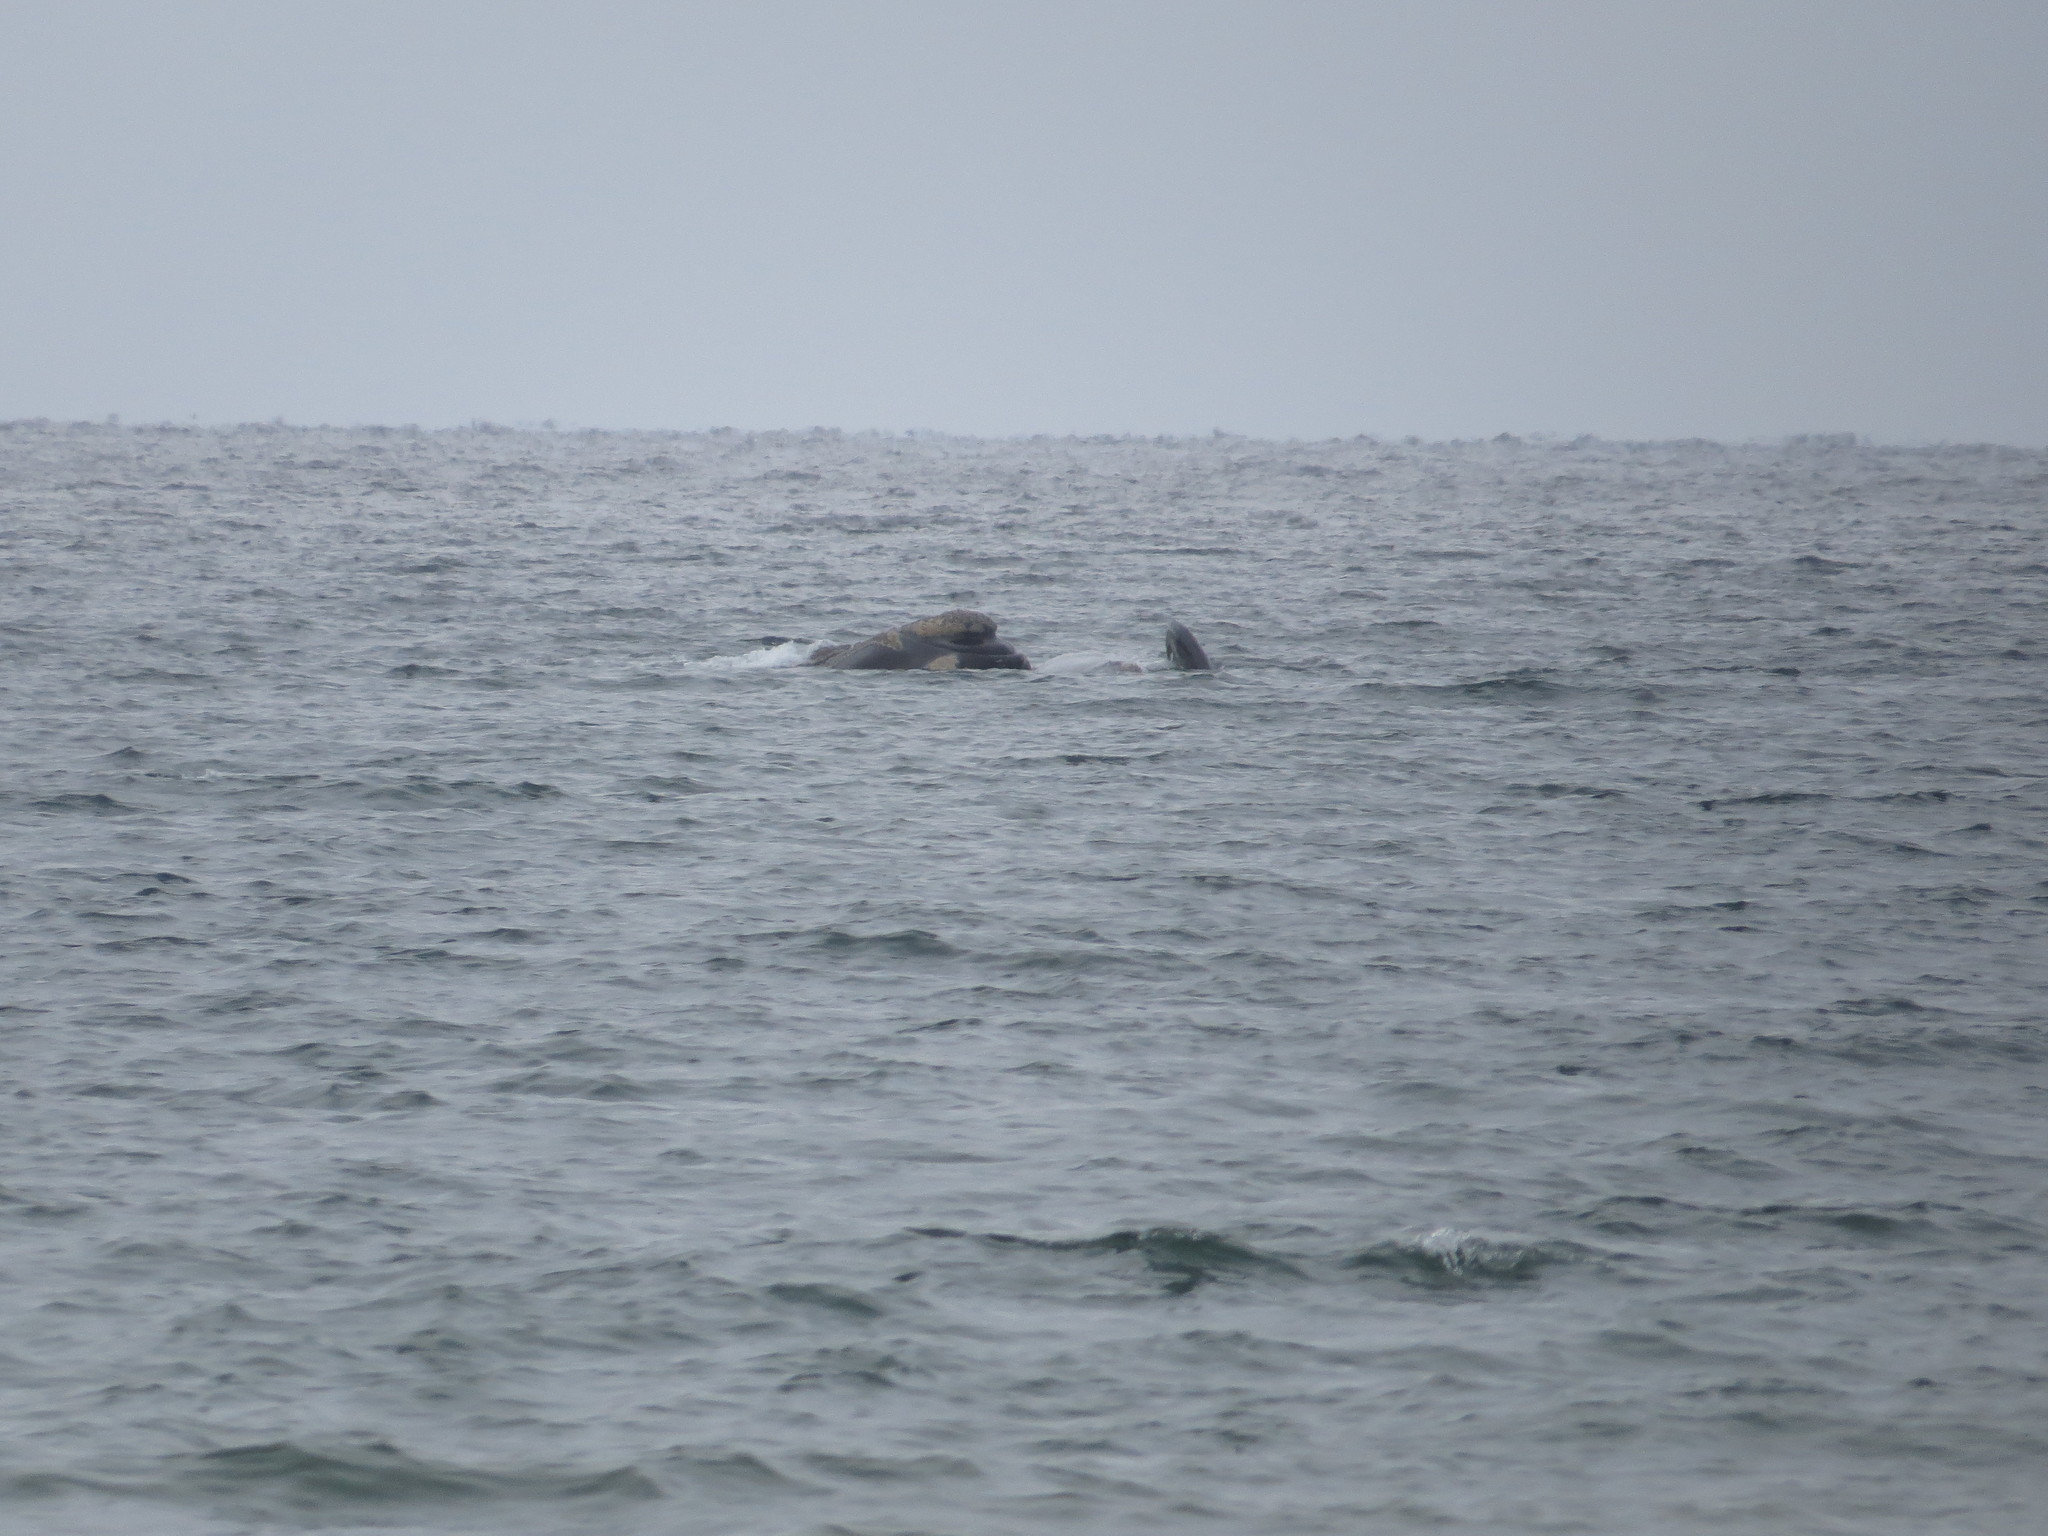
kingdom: Animalia
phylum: Chordata
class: Mammalia
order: Cetacea
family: Balaenidae
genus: Eubalaena
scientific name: Eubalaena australis
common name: Southern right whale
